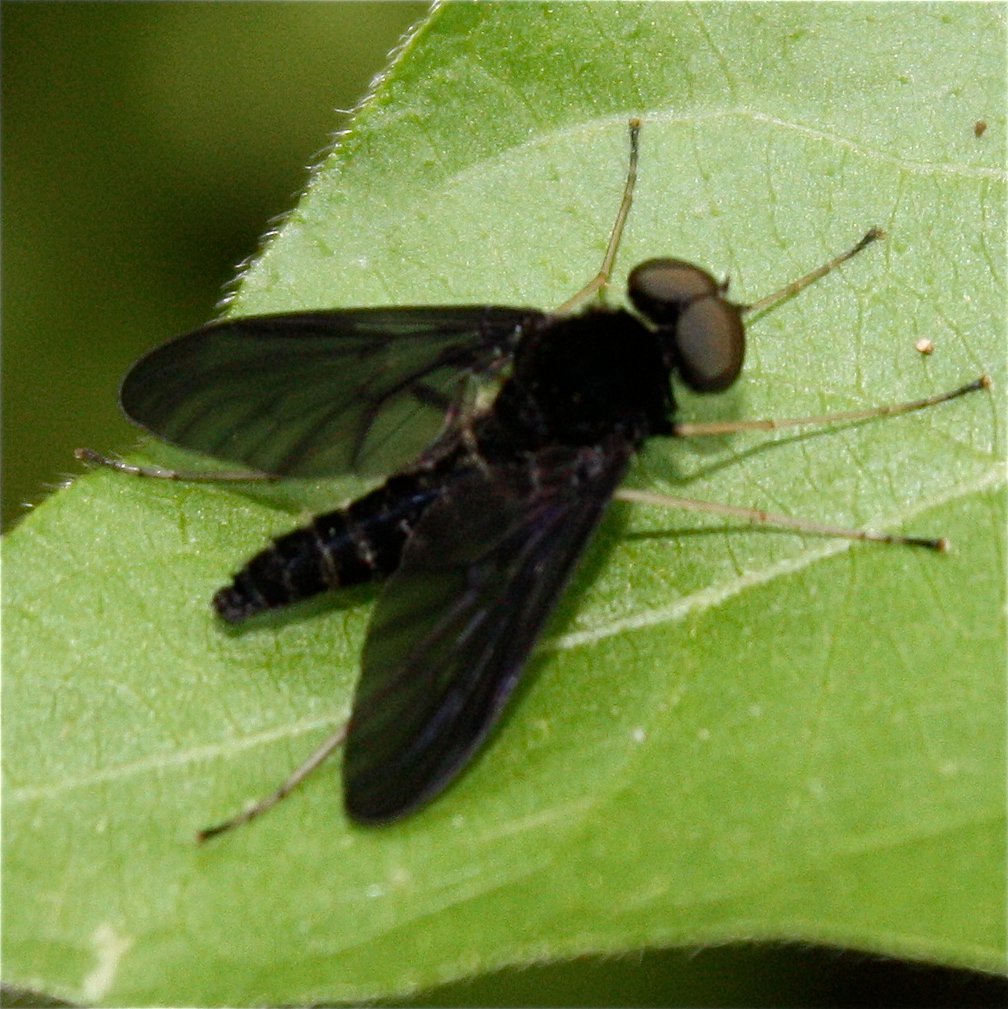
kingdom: Animalia
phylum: Arthropoda
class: Insecta
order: Diptera
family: Rhagionidae
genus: Chrysopilus
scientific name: Chrysopilus velutinus
